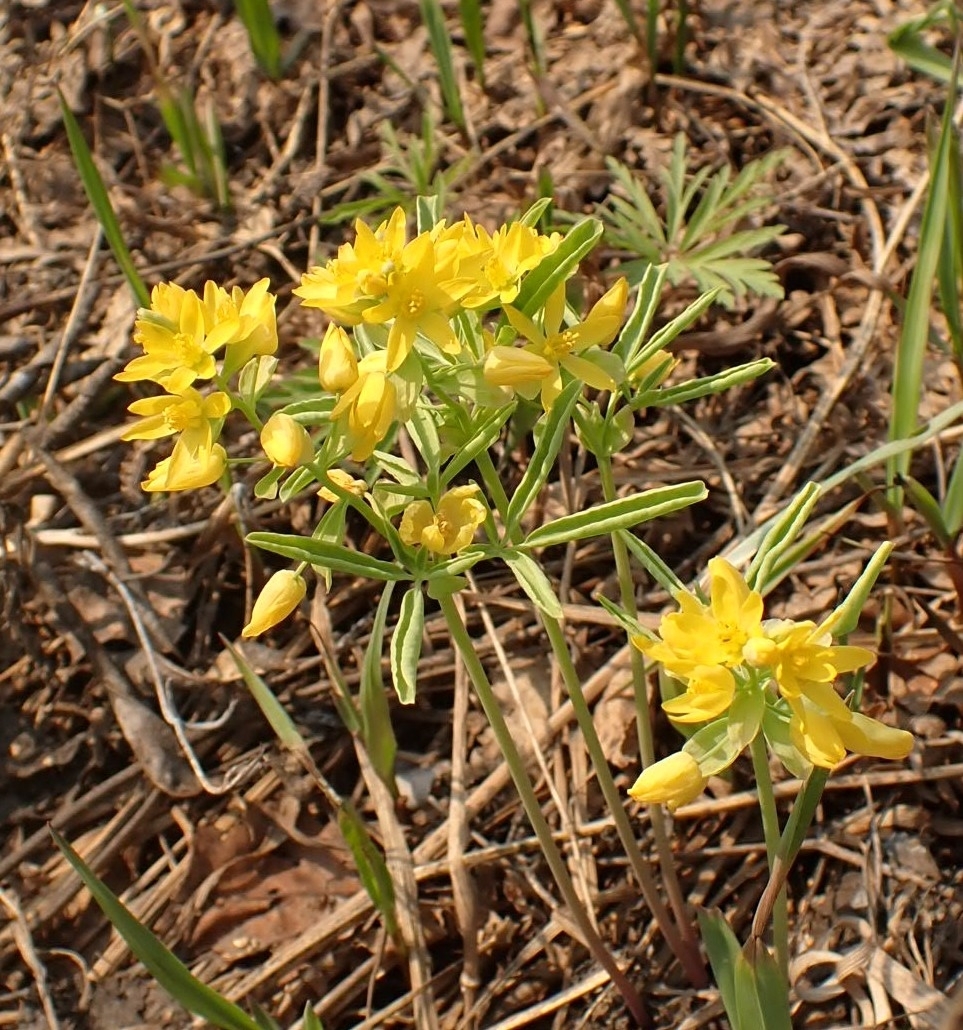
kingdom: Plantae
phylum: Tracheophyta
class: Magnoliopsida
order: Ranunculales
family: Berberidaceae
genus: Gymnospermium
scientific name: Gymnospermium altaicum
